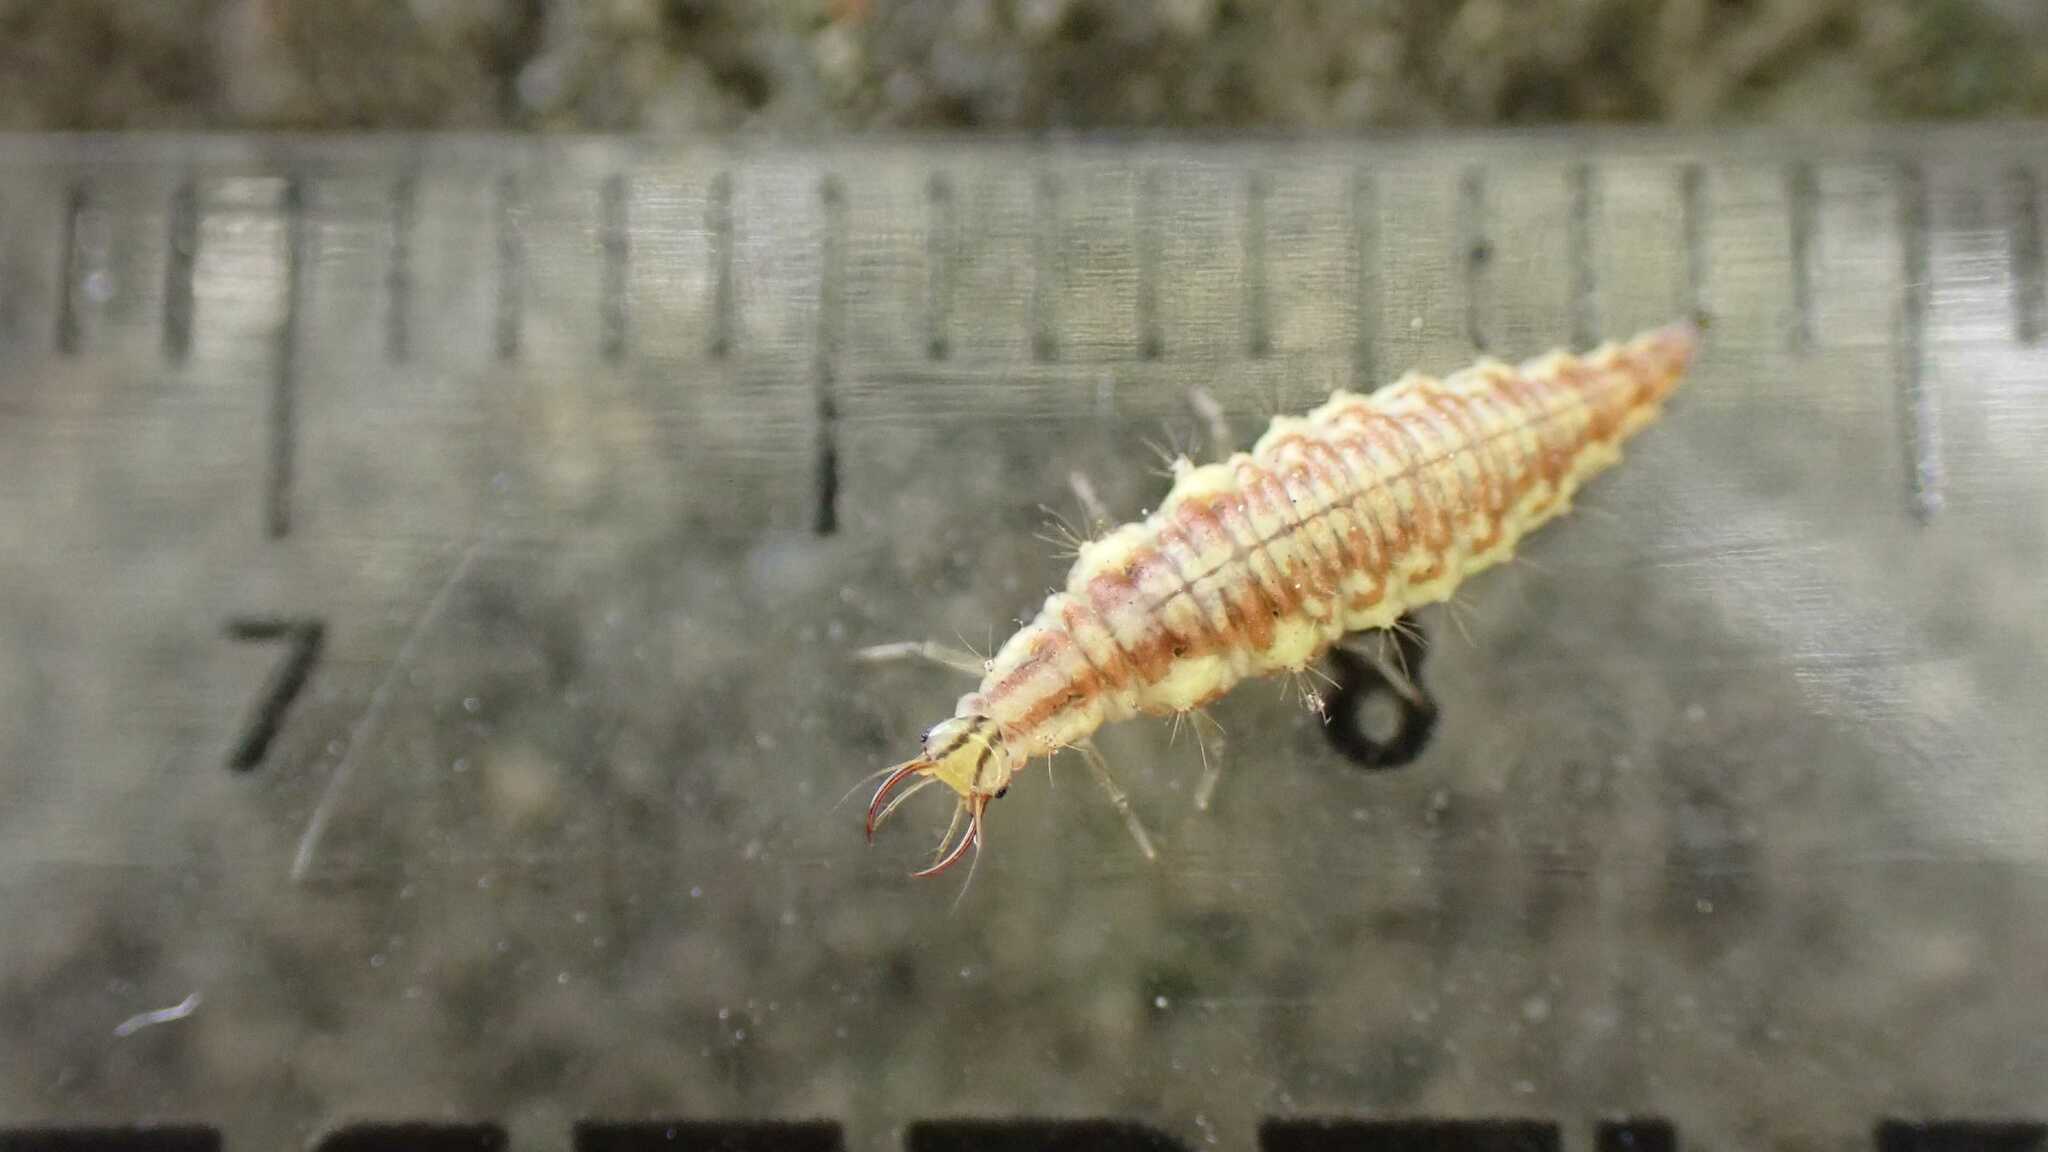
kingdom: Animalia
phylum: Arthropoda
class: Insecta
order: Neuroptera
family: Chrysopidae
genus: Chrysoperla
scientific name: Chrysoperla
